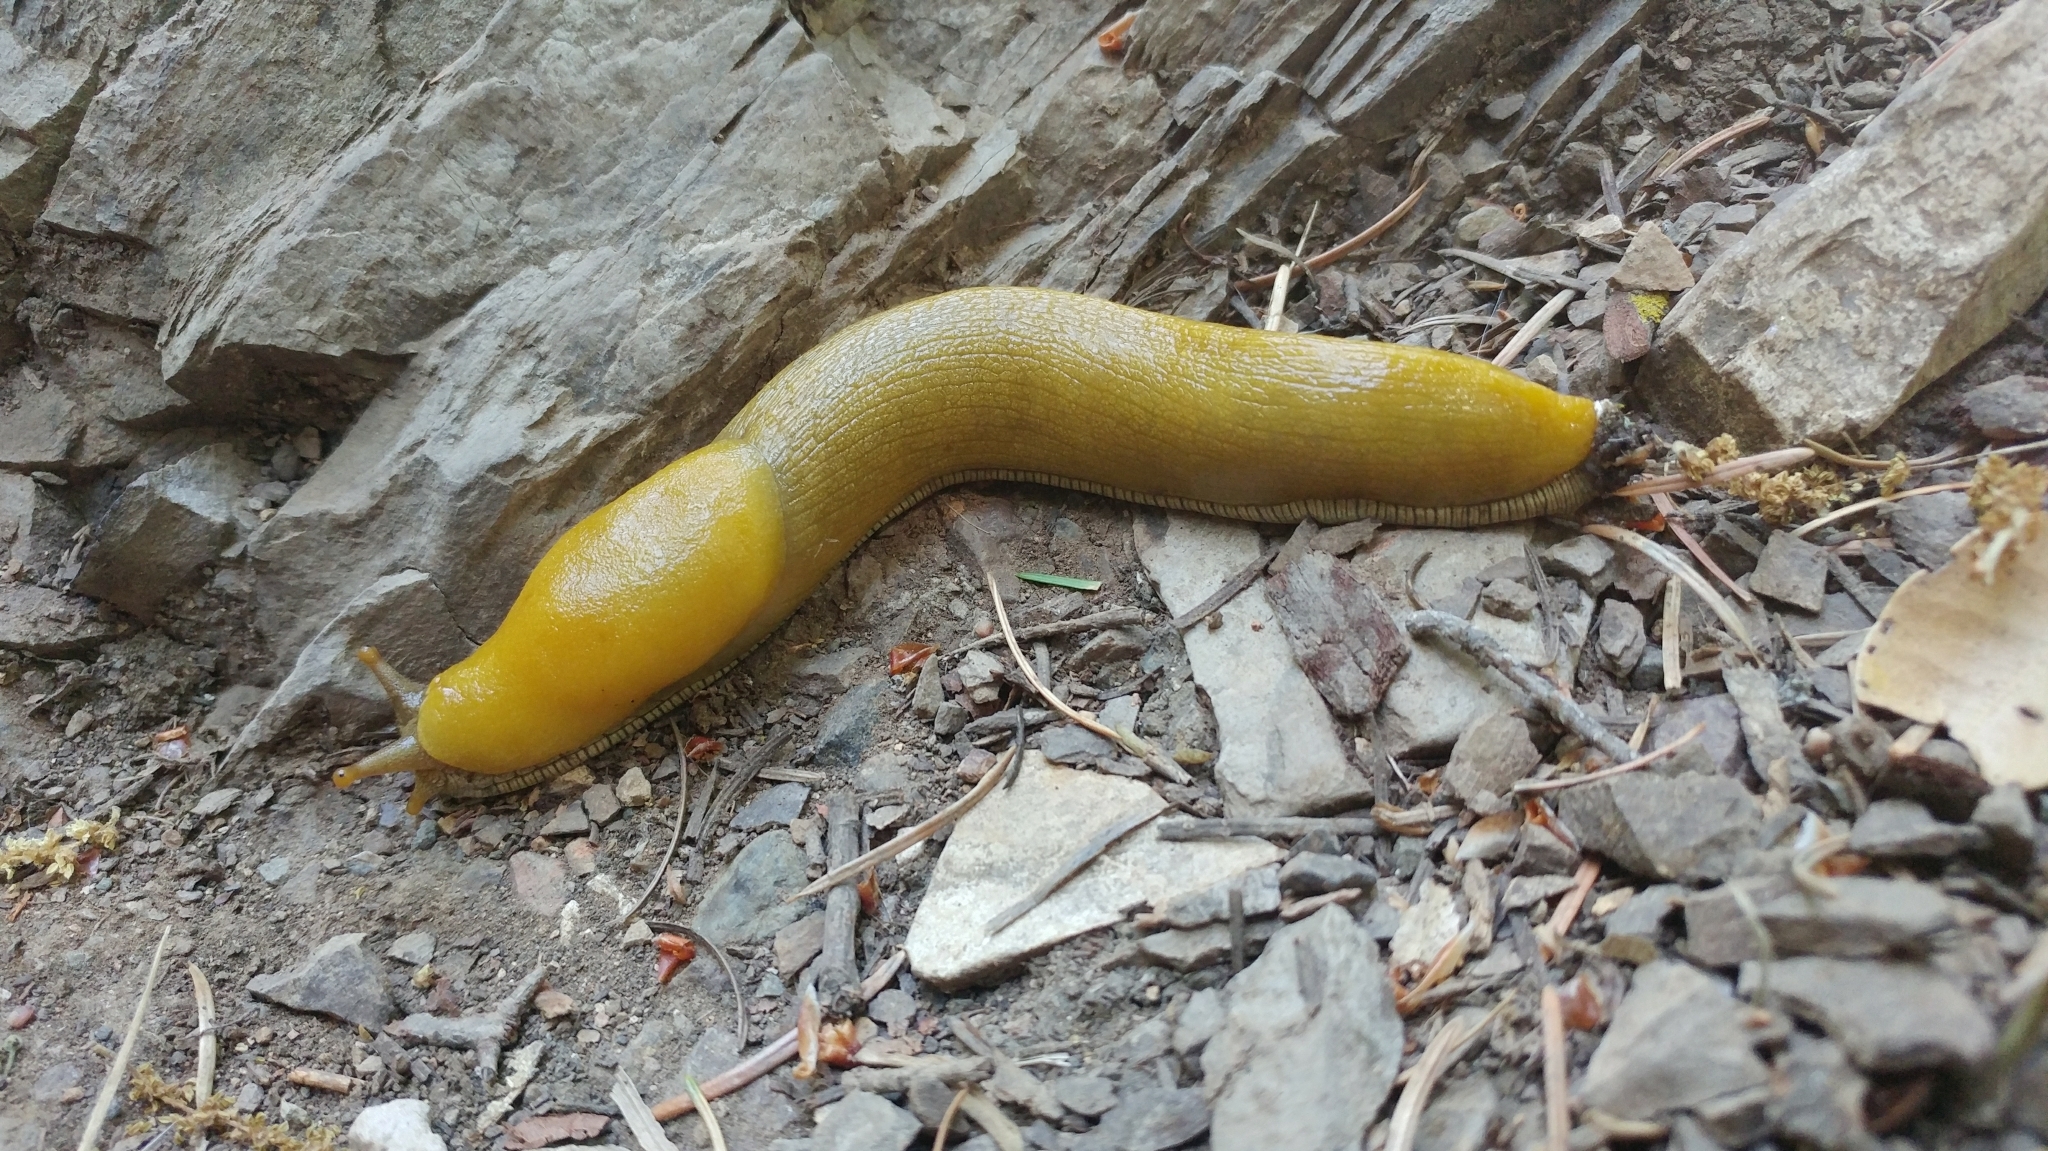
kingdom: Animalia
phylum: Mollusca
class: Gastropoda
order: Stylommatophora
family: Ariolimacidae
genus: Ariolimax
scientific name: Ariolimax stramineus
